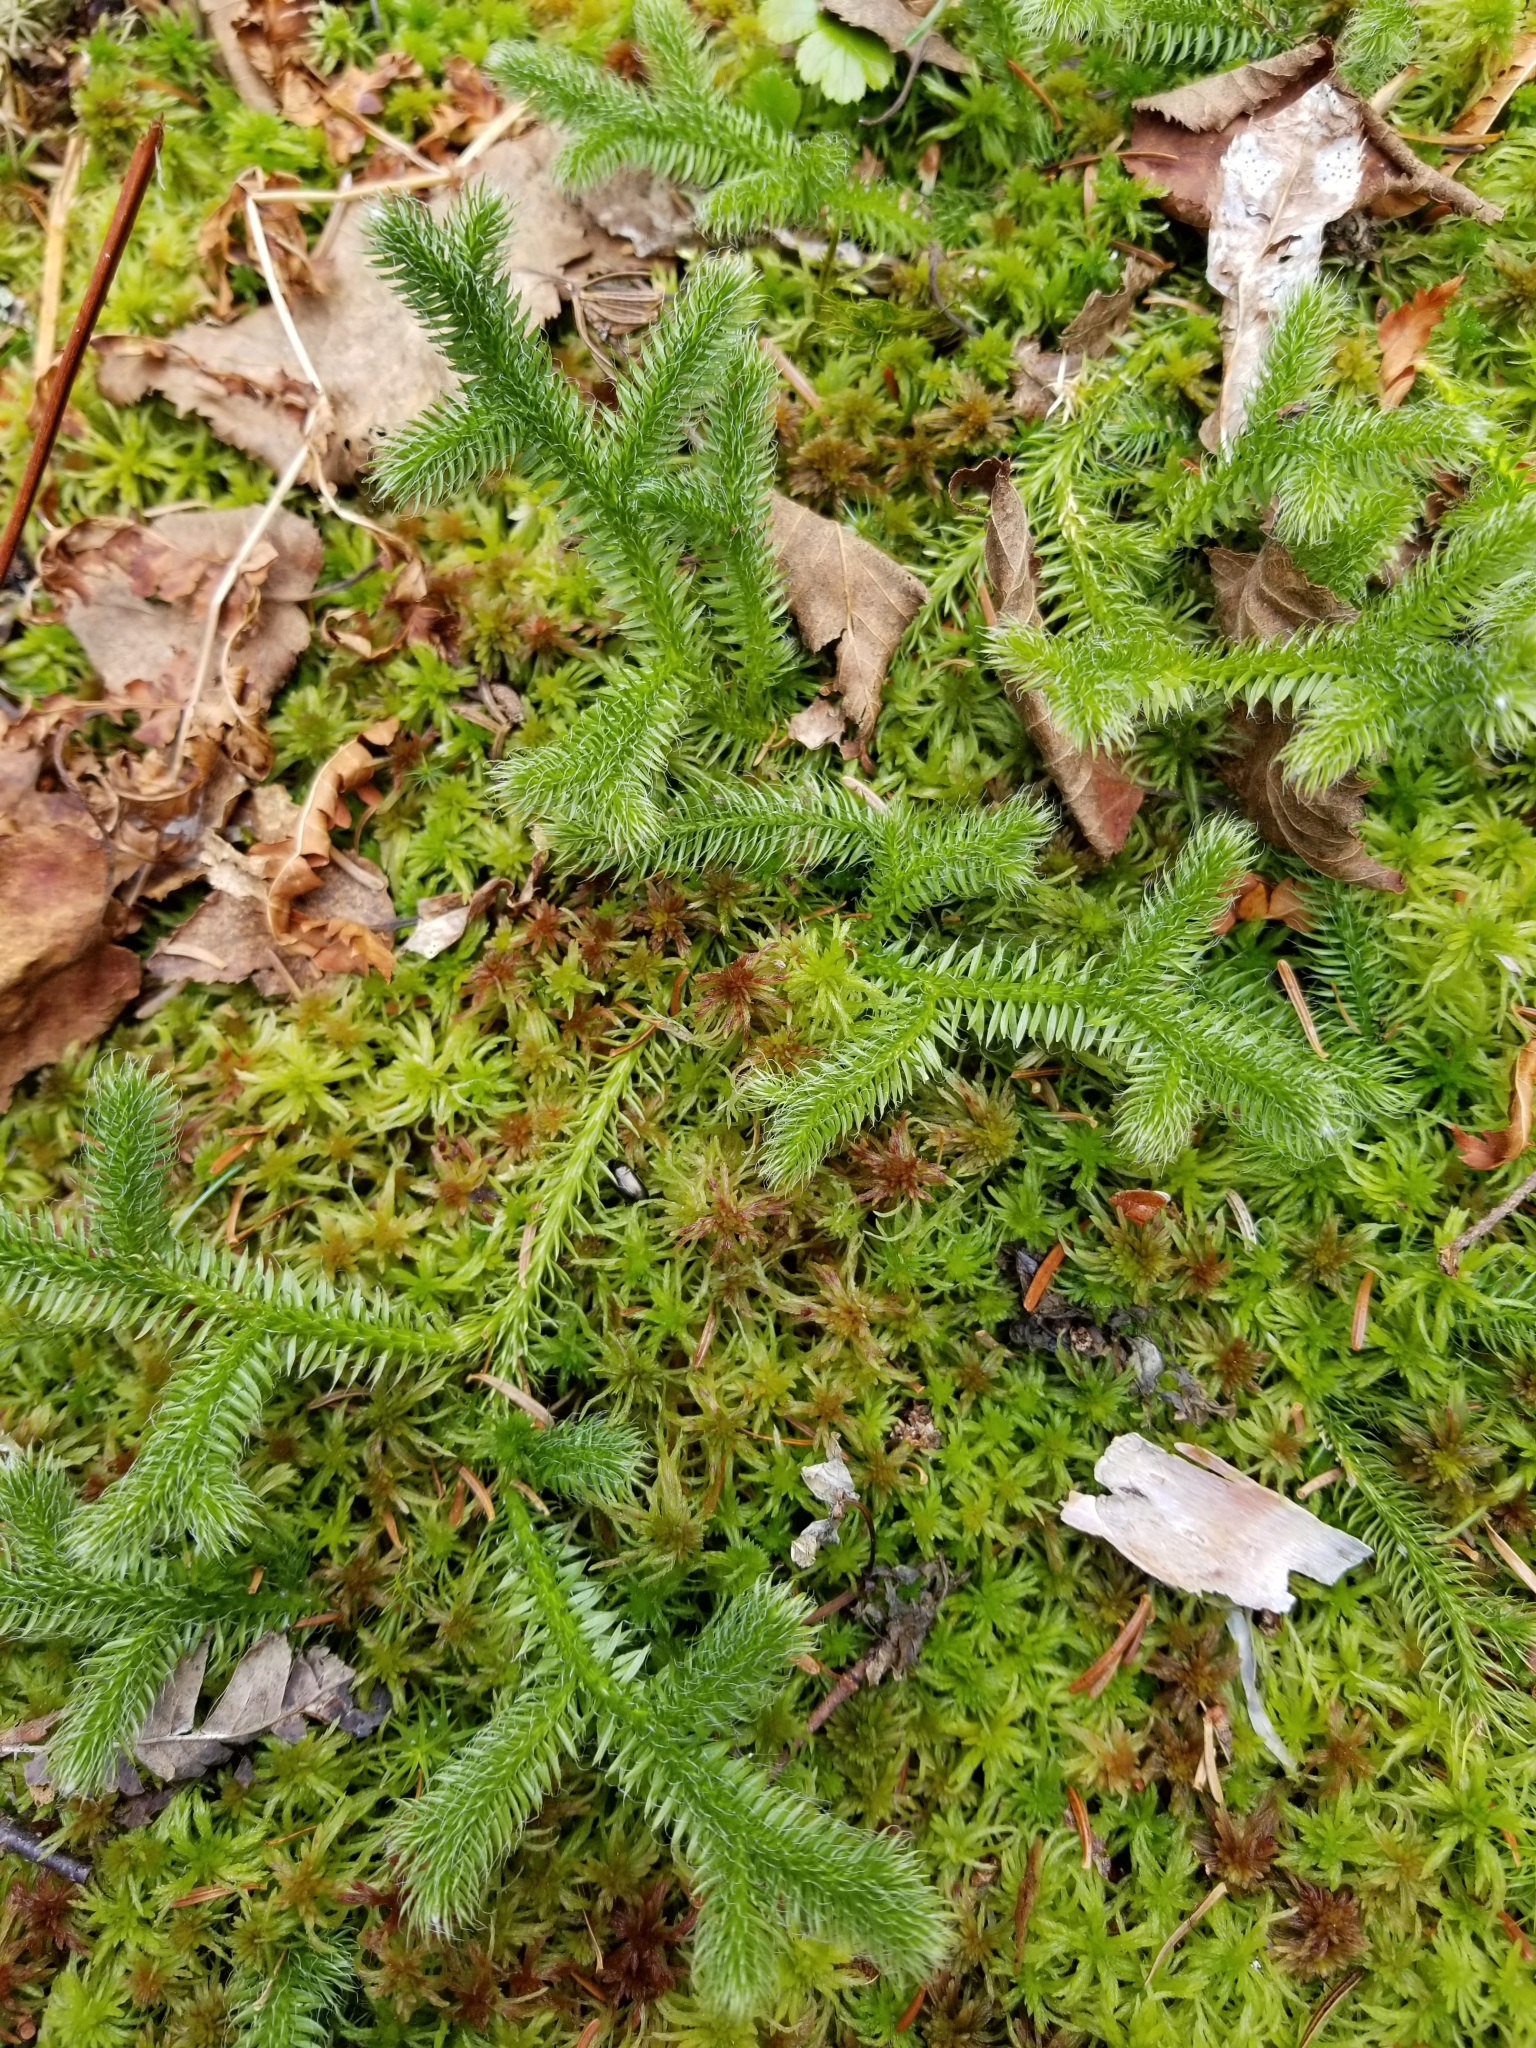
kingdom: Plantae
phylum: Tracheophyta
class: Lycopodiopsida
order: Lycopodiales
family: Lycopodiaceae
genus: Lycopodium
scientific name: Lycopodium clavatum
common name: Stag's-horn clubmoss
